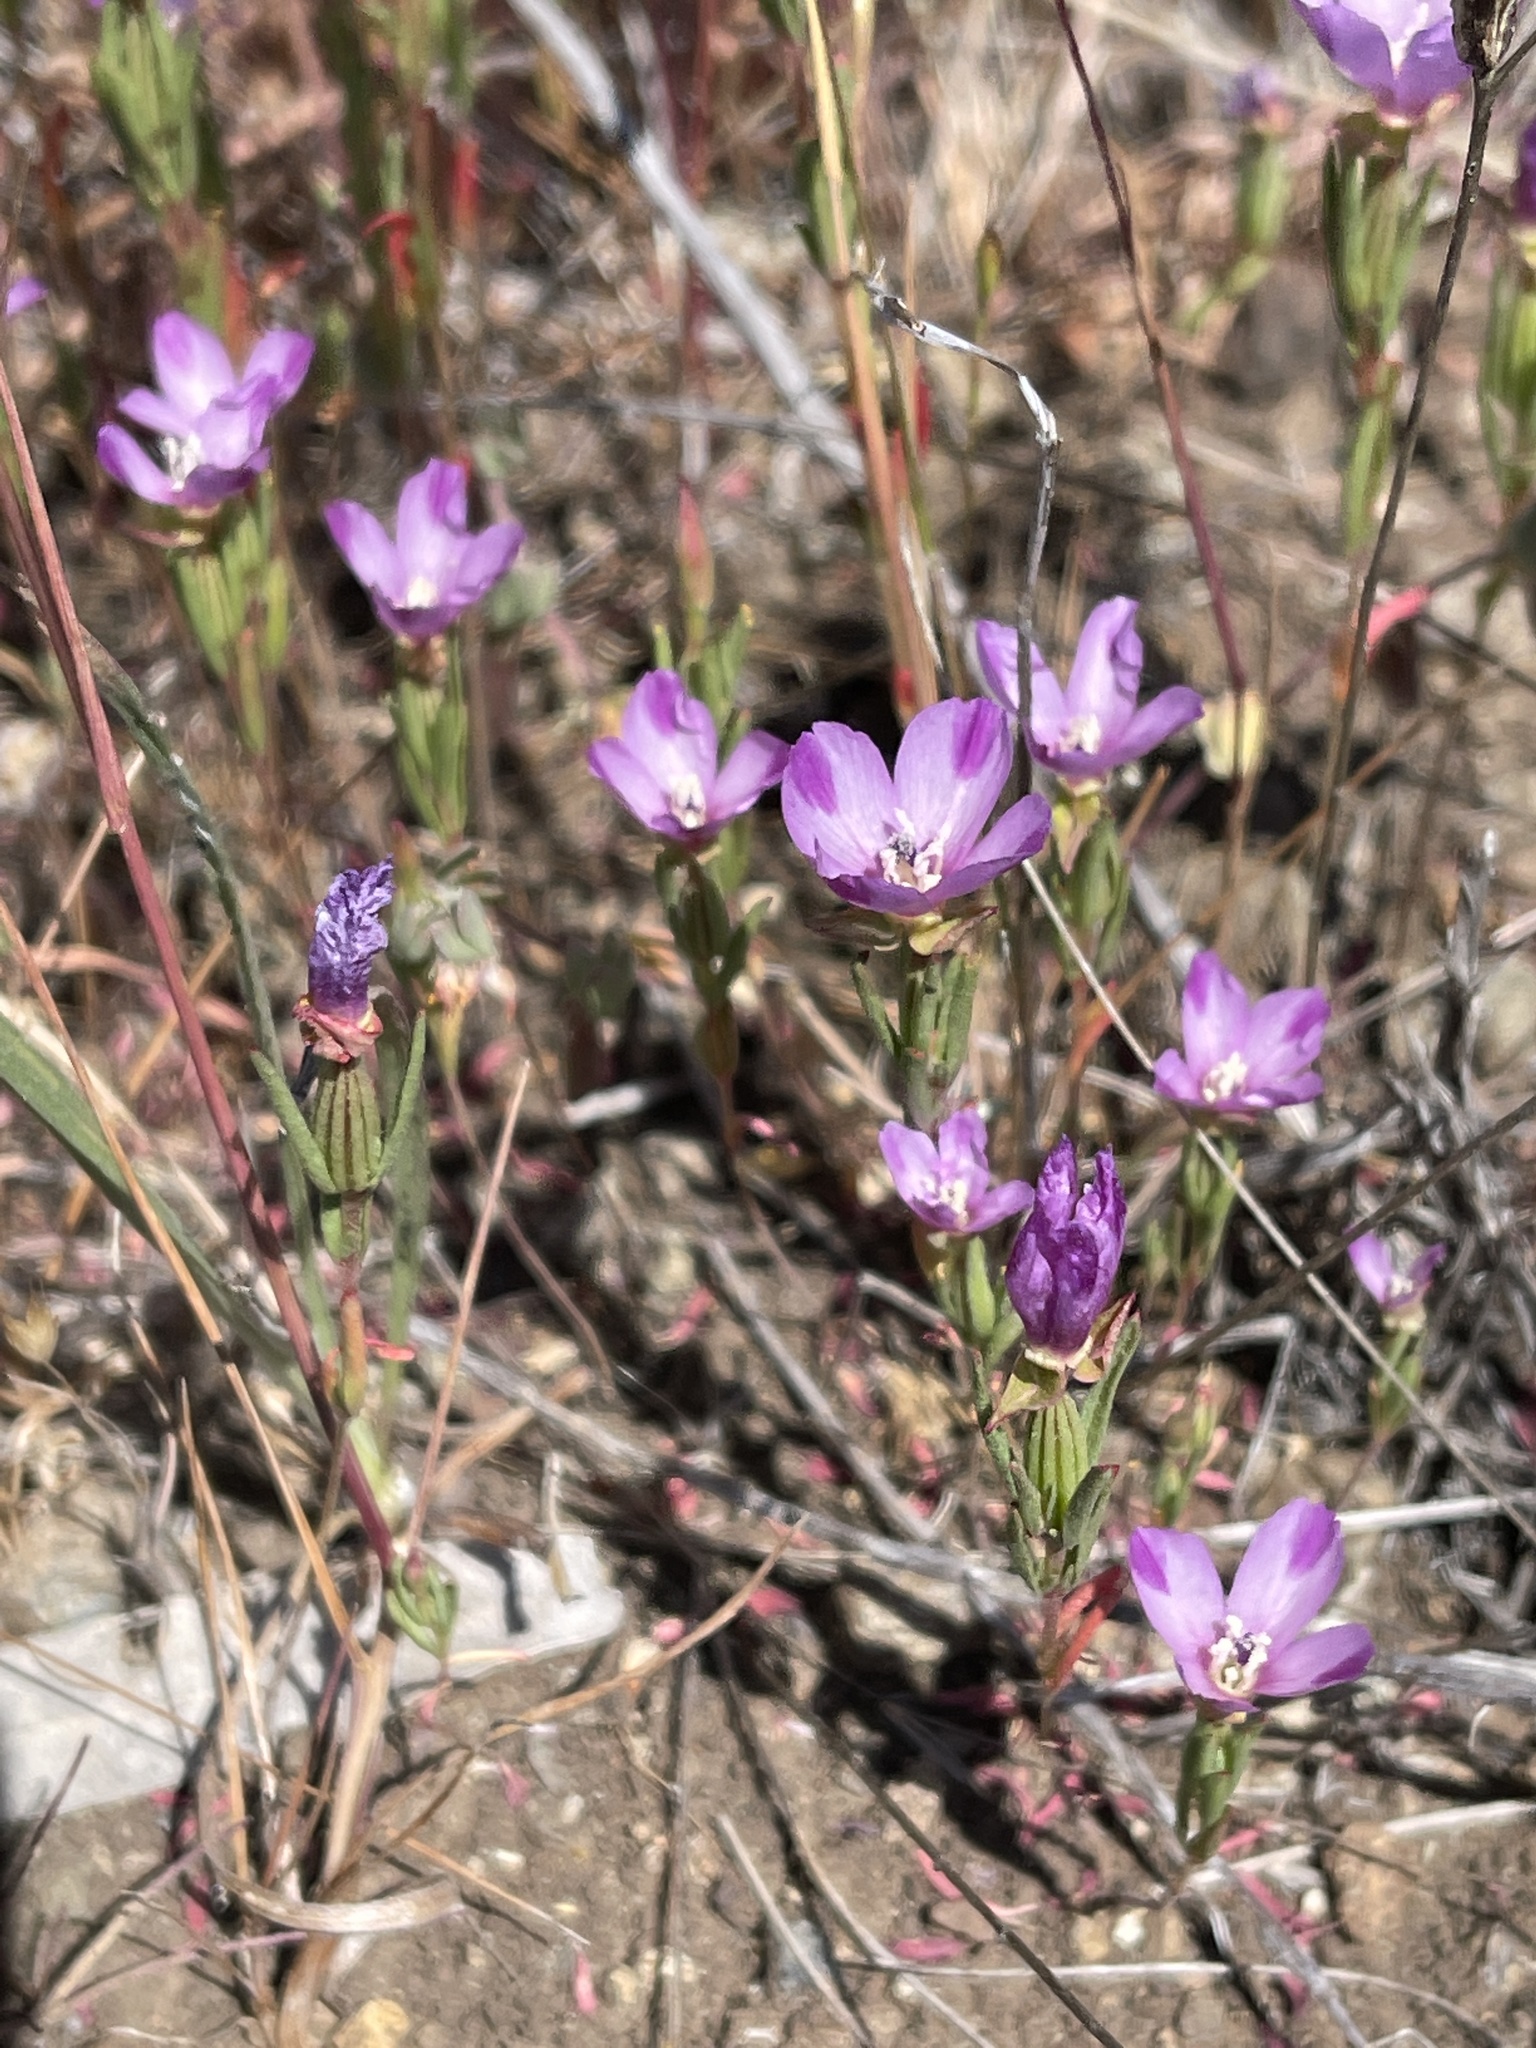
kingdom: Plantae
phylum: Tracheophyta
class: Magnoliopsida
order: Myrtales
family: Onagraceae
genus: Clarkia
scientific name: Clarkia purpurea
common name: Purple clarkia
